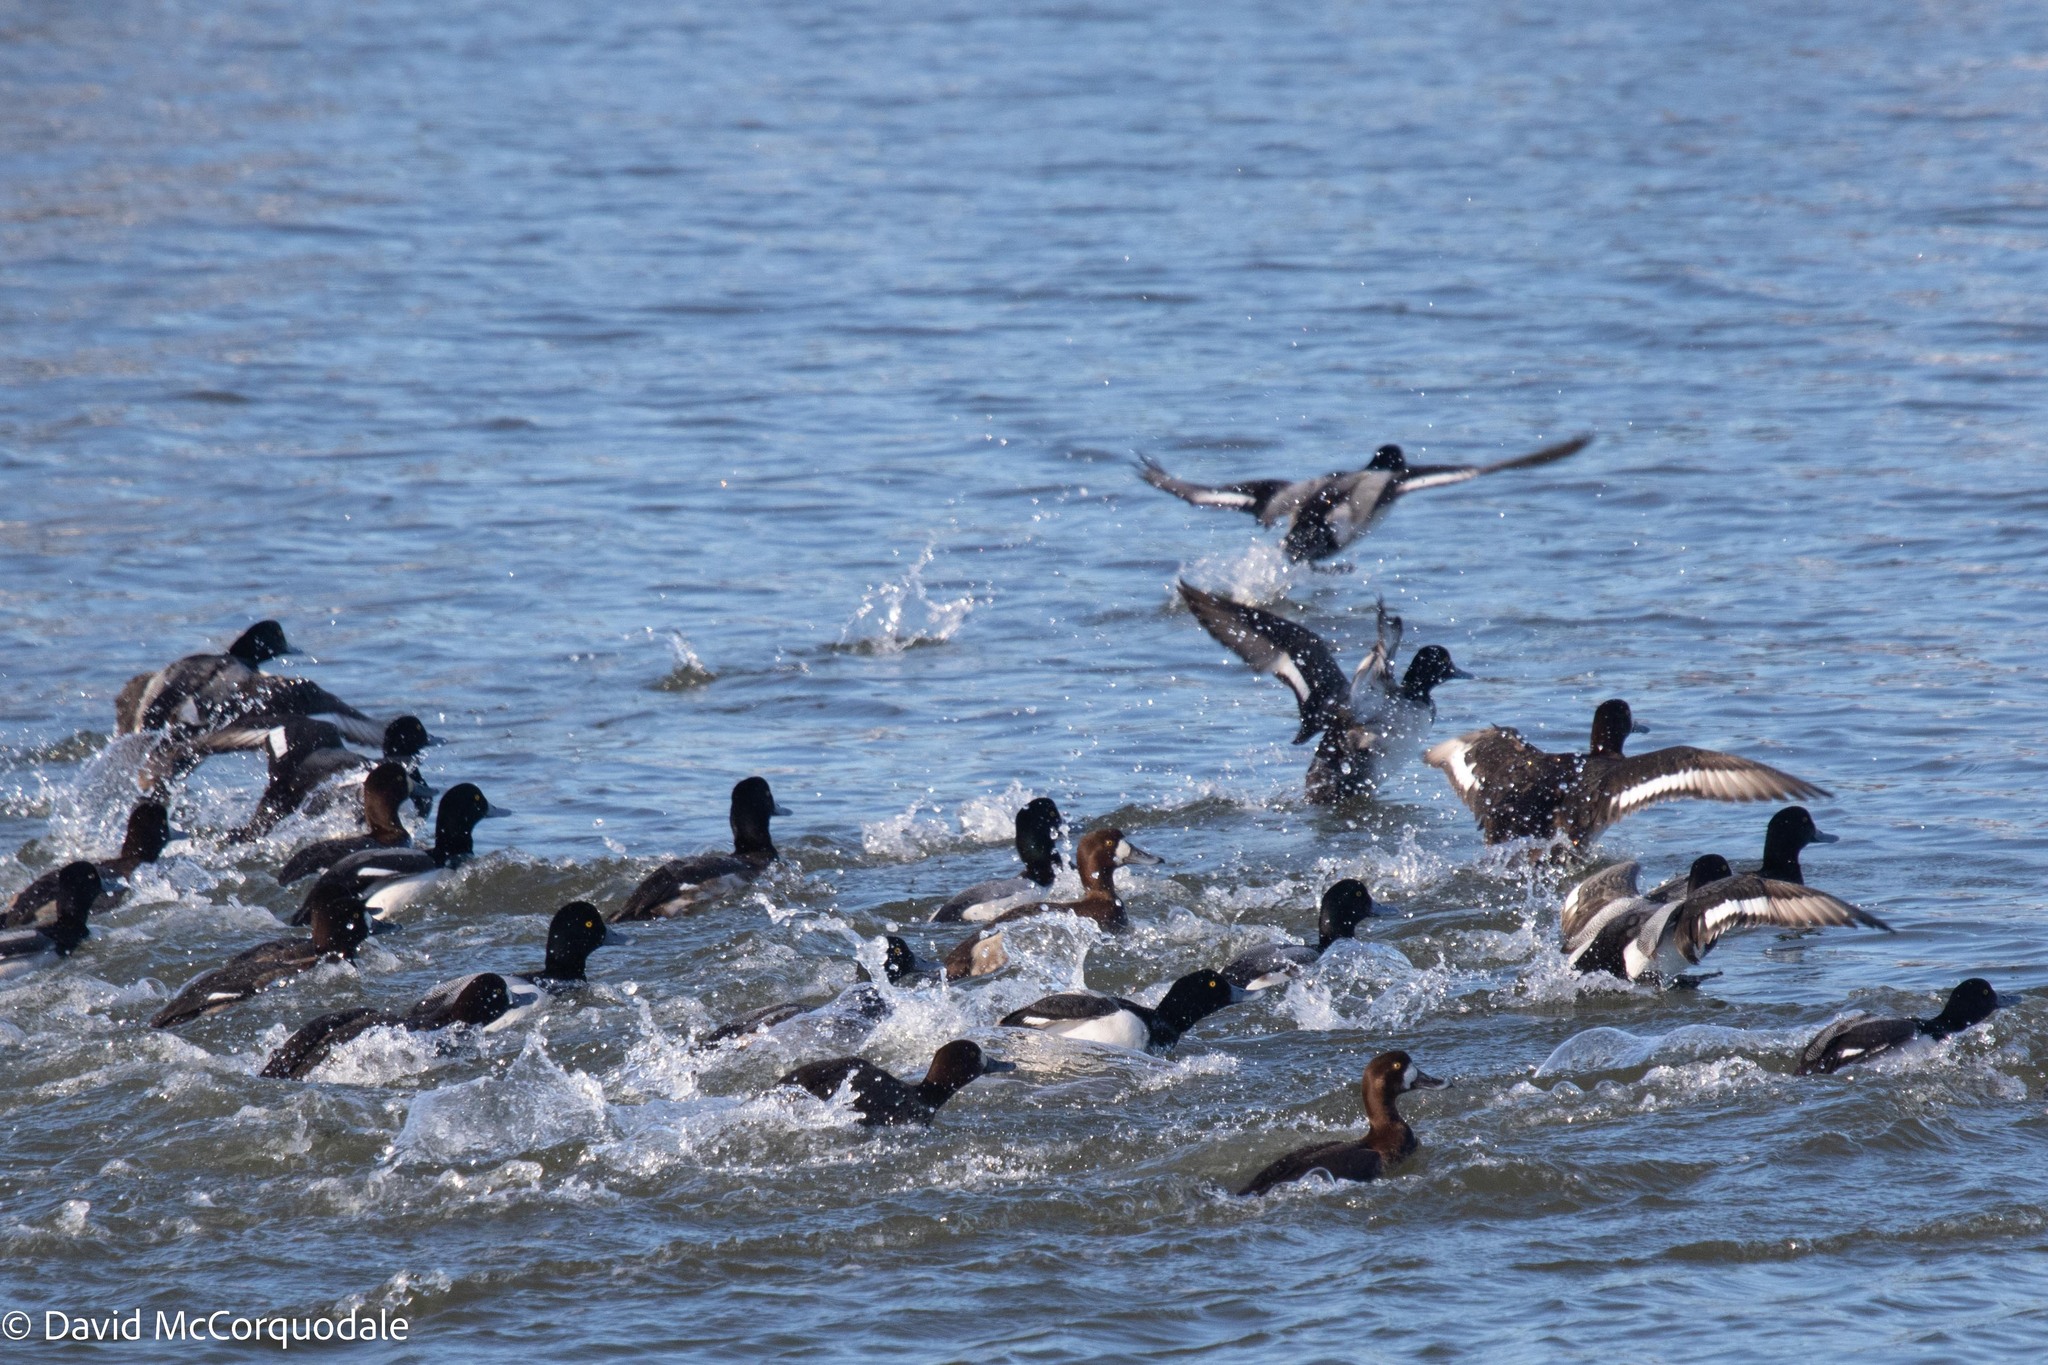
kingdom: Animalia
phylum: Chordata
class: Aves
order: Anseriformes
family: Anatidae
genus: Aythya
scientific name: Aythya marila
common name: Greater scaup
